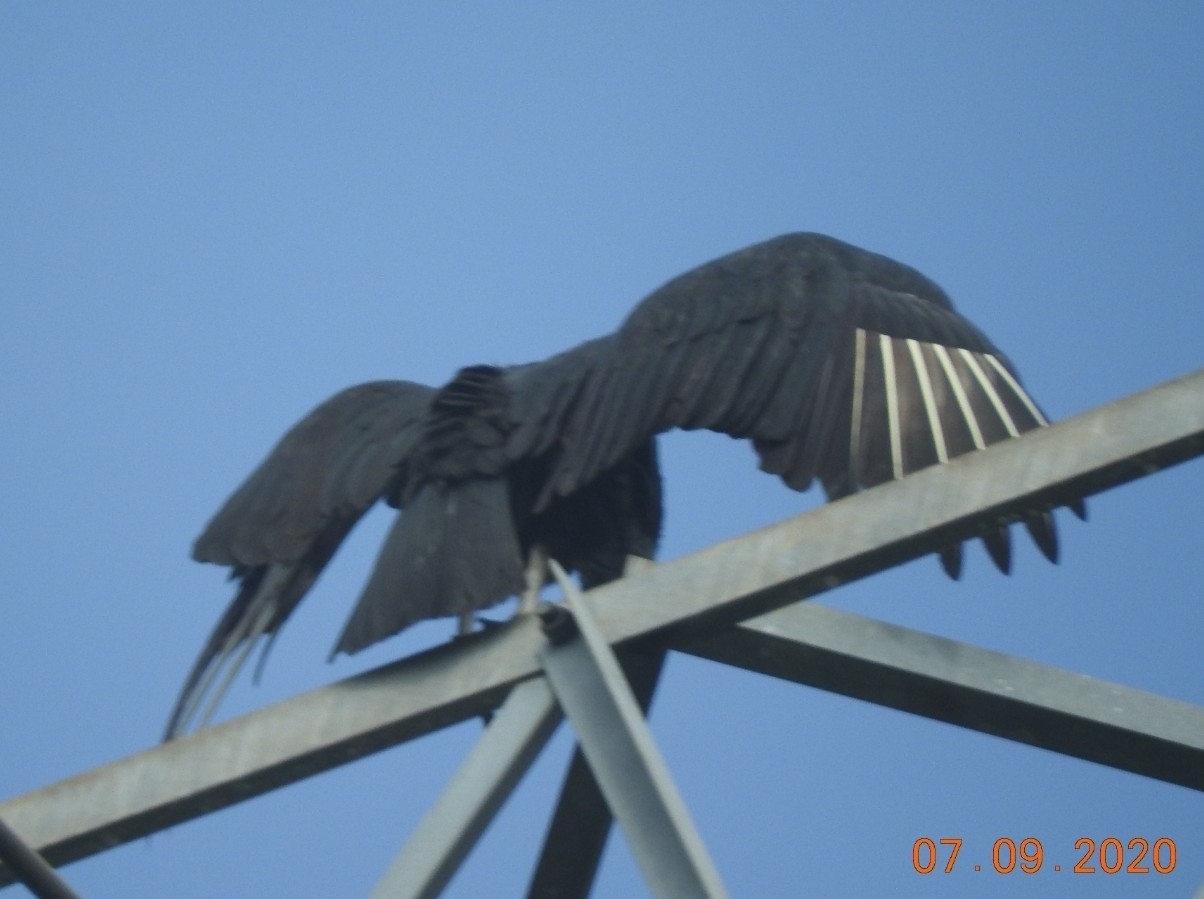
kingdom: Animalia
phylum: Chordata
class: Aves
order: Accipitriformes
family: Cathartidae
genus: Coragyps
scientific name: Coragyps atratus
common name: Black vulture
